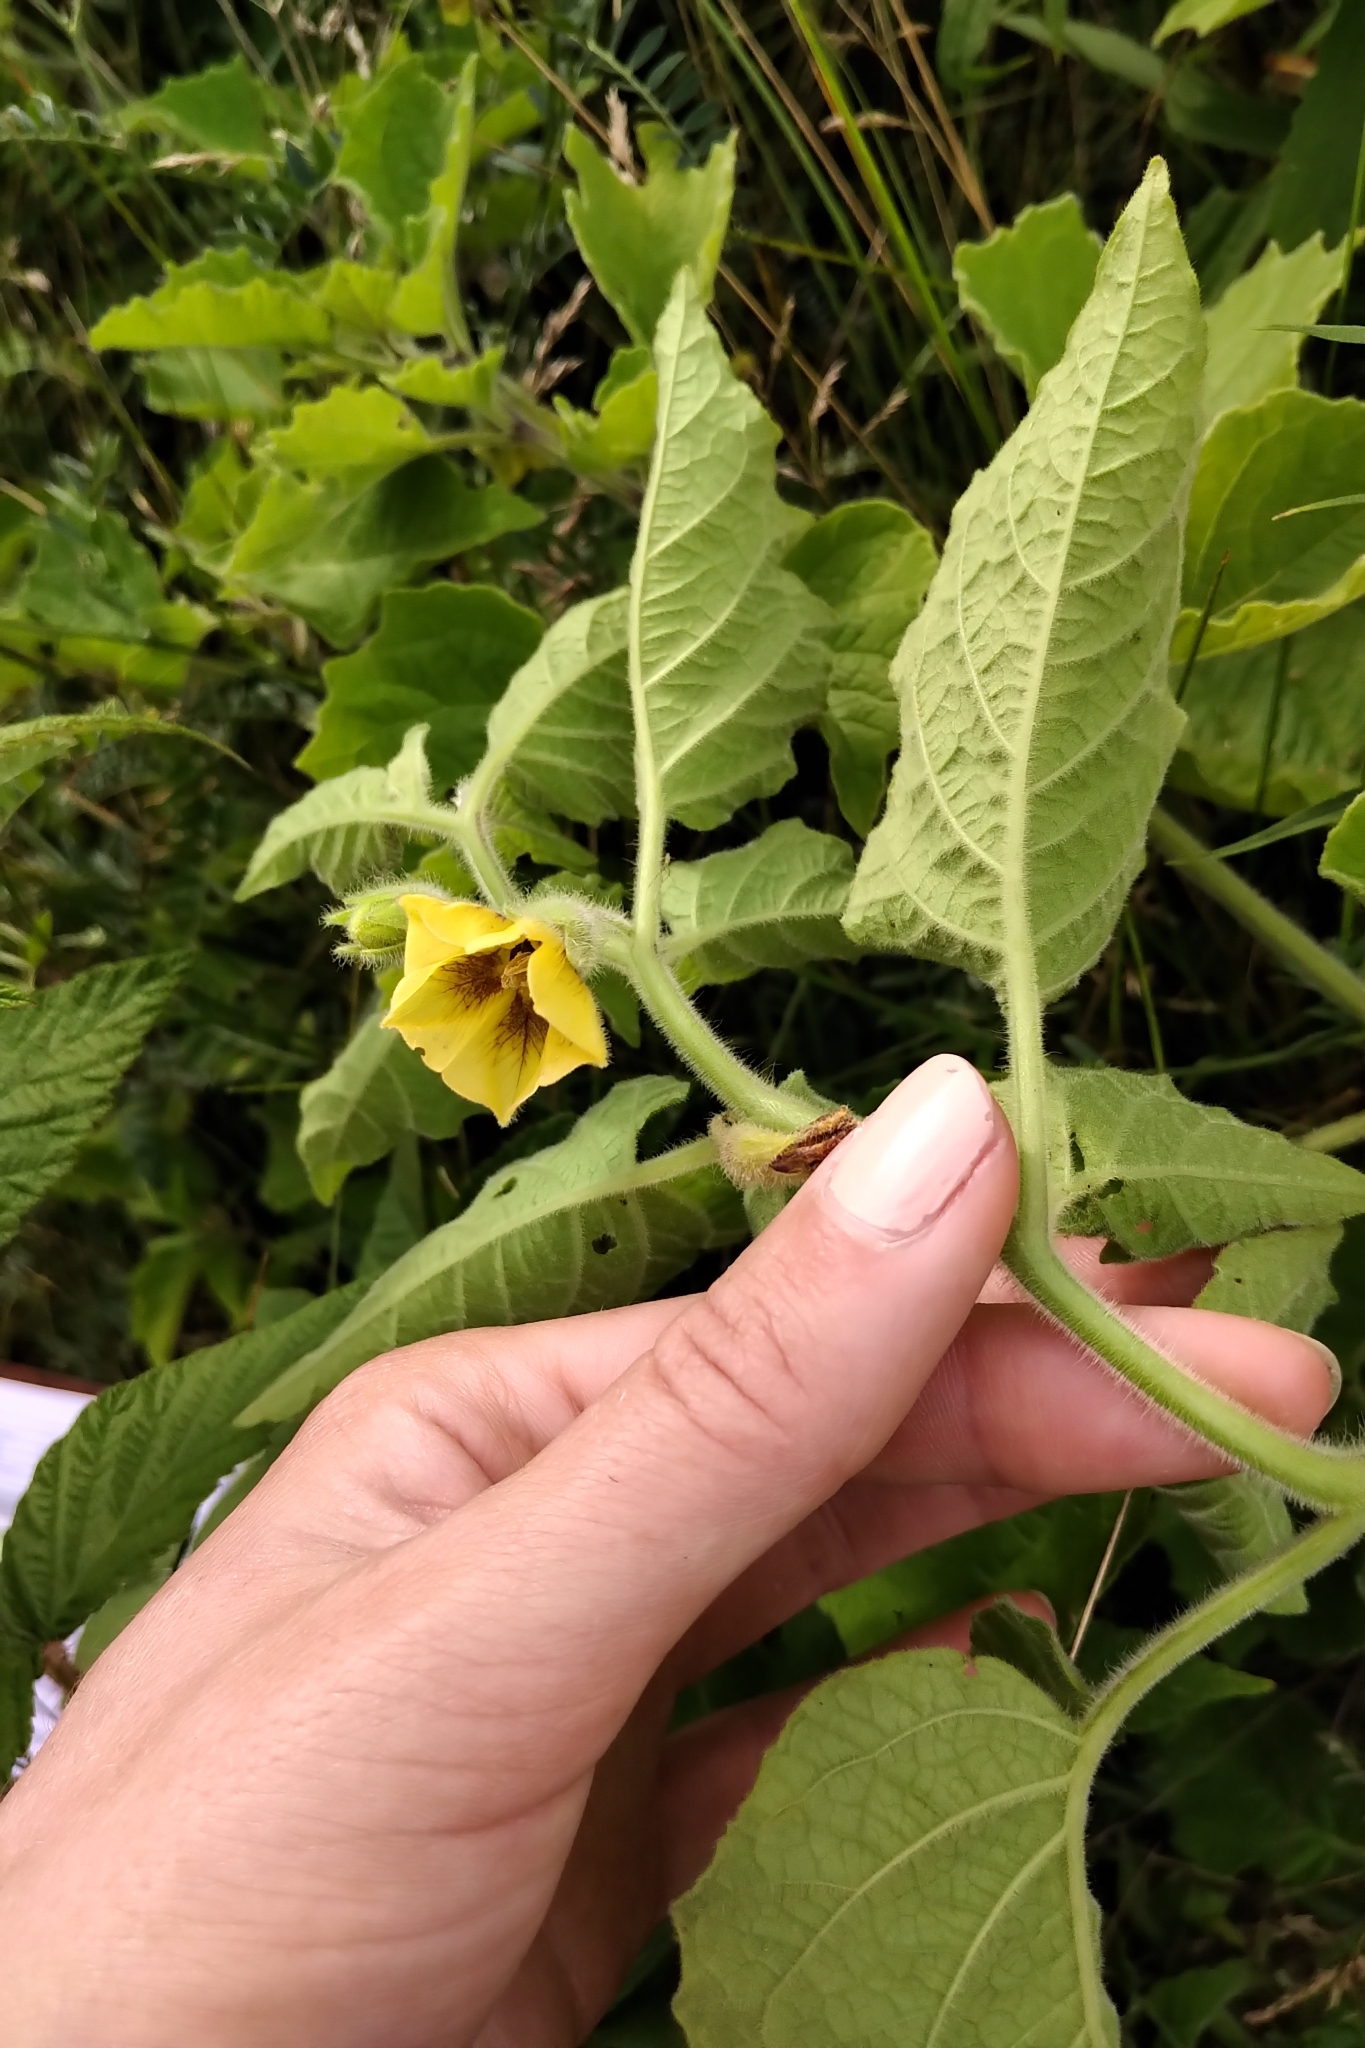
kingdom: Plantae
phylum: Tracheophyta
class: Magnoliopsida
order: Solanales
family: Solanaceae
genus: Physalis
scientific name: Physalis heterophylla
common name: Clammy ground-cherry
